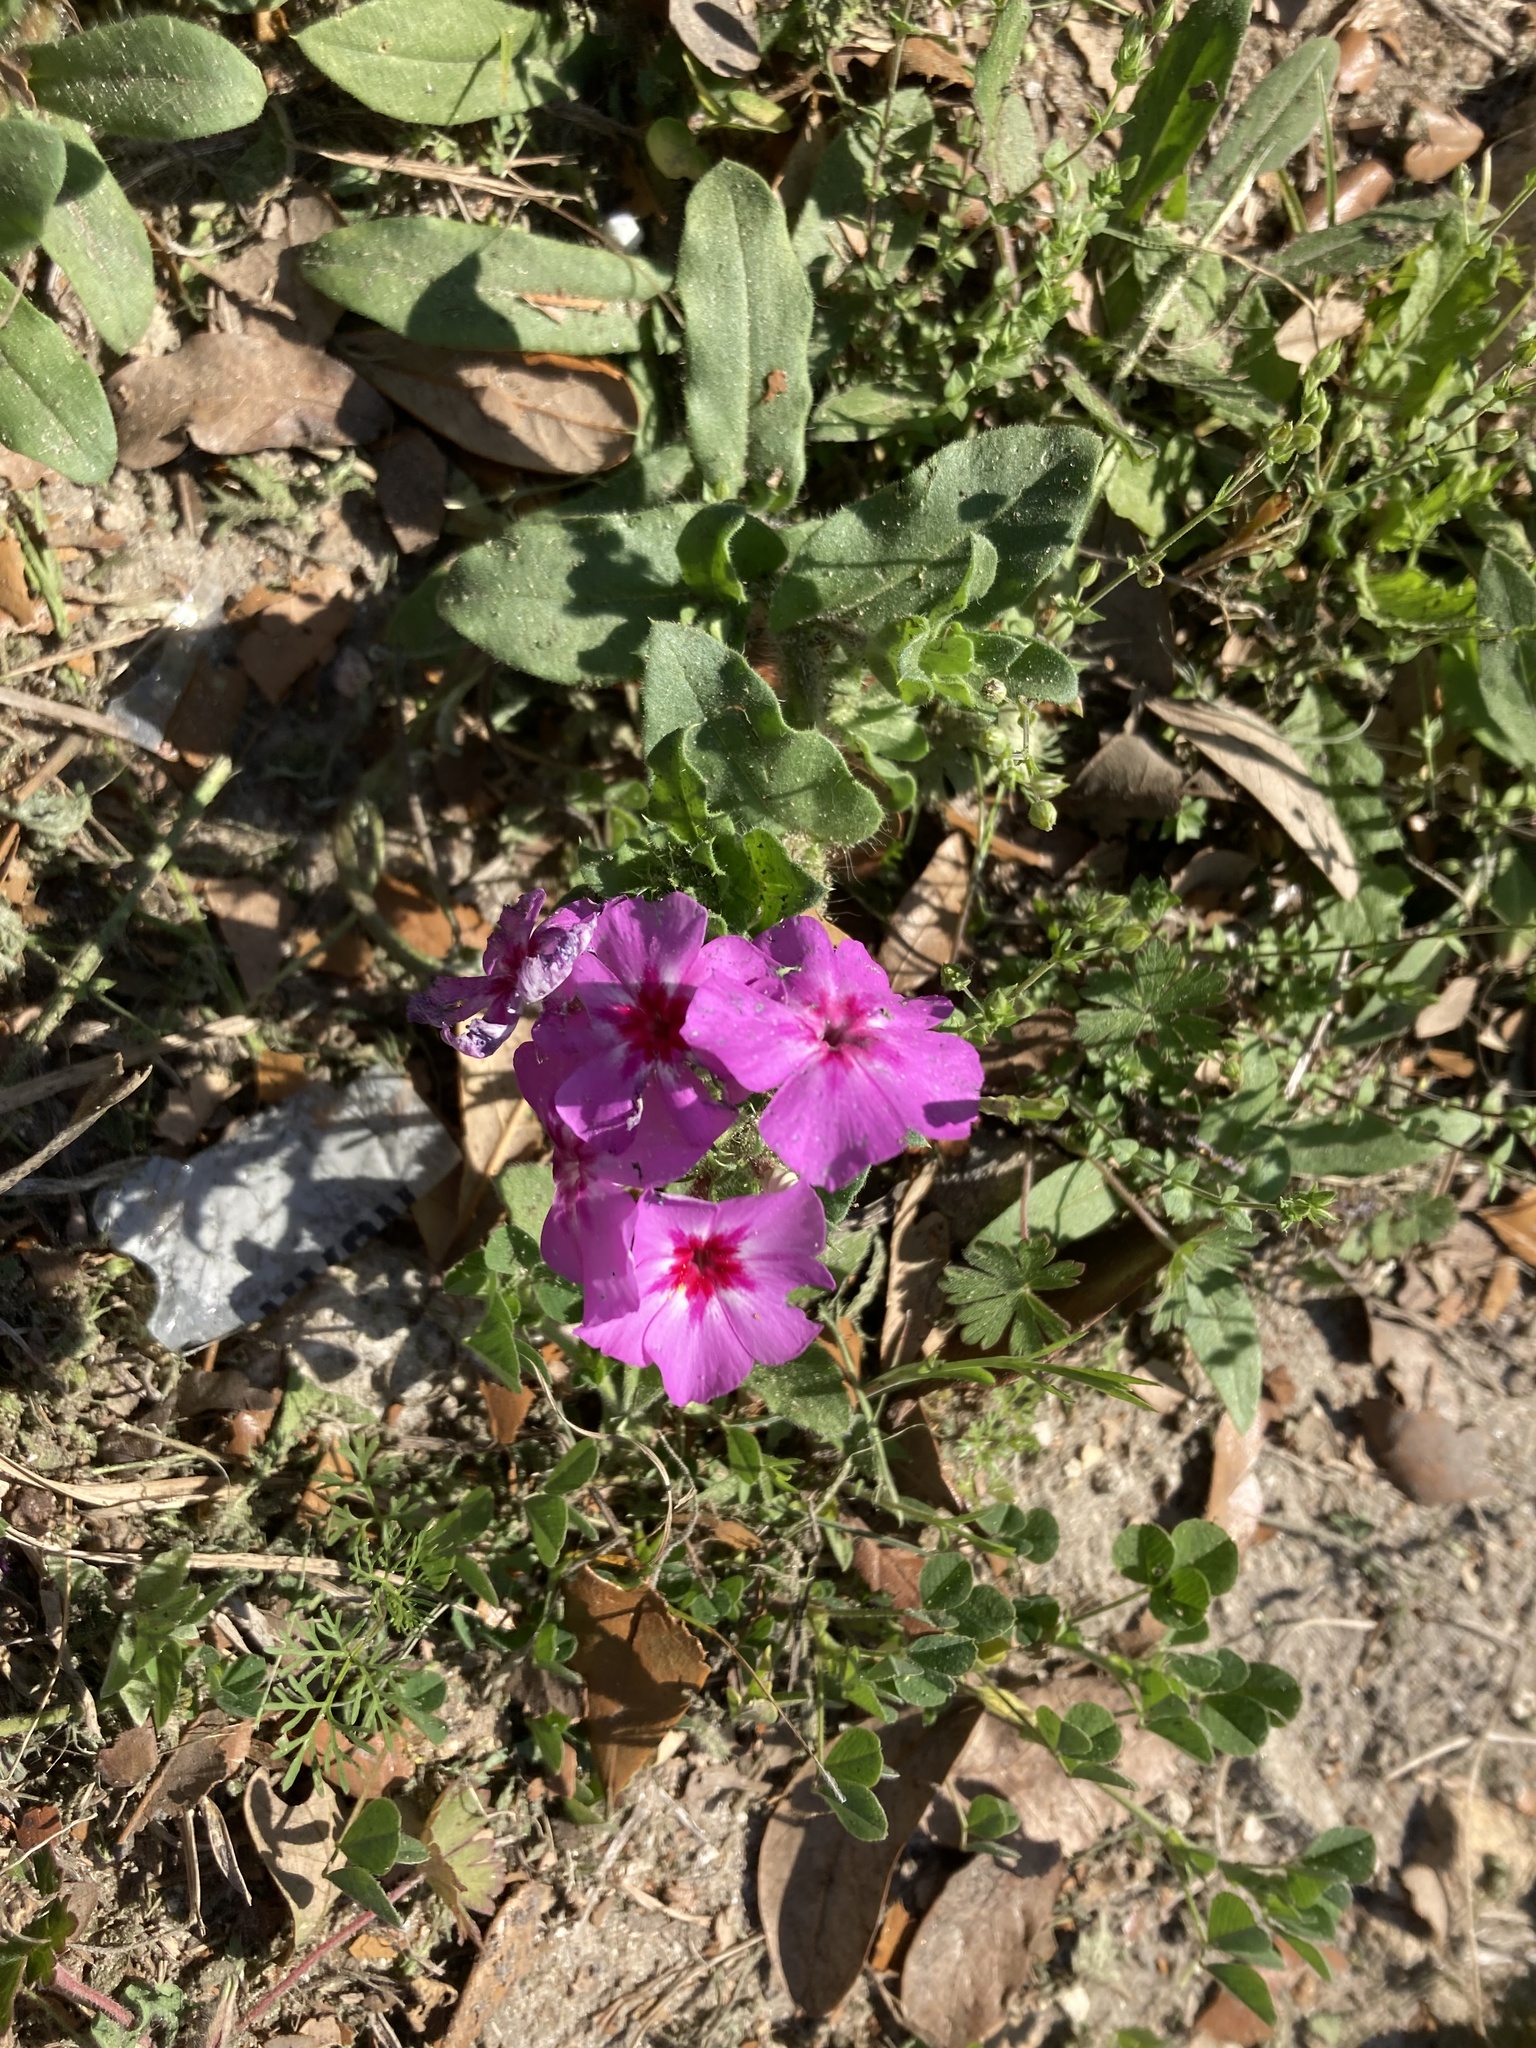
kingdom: Plantae
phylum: Tracheophyta
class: Magnoliopsida
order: Ericales
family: Polemoniaceae
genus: Phlox
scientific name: Phlox drummondii
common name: Drummond's phlox
